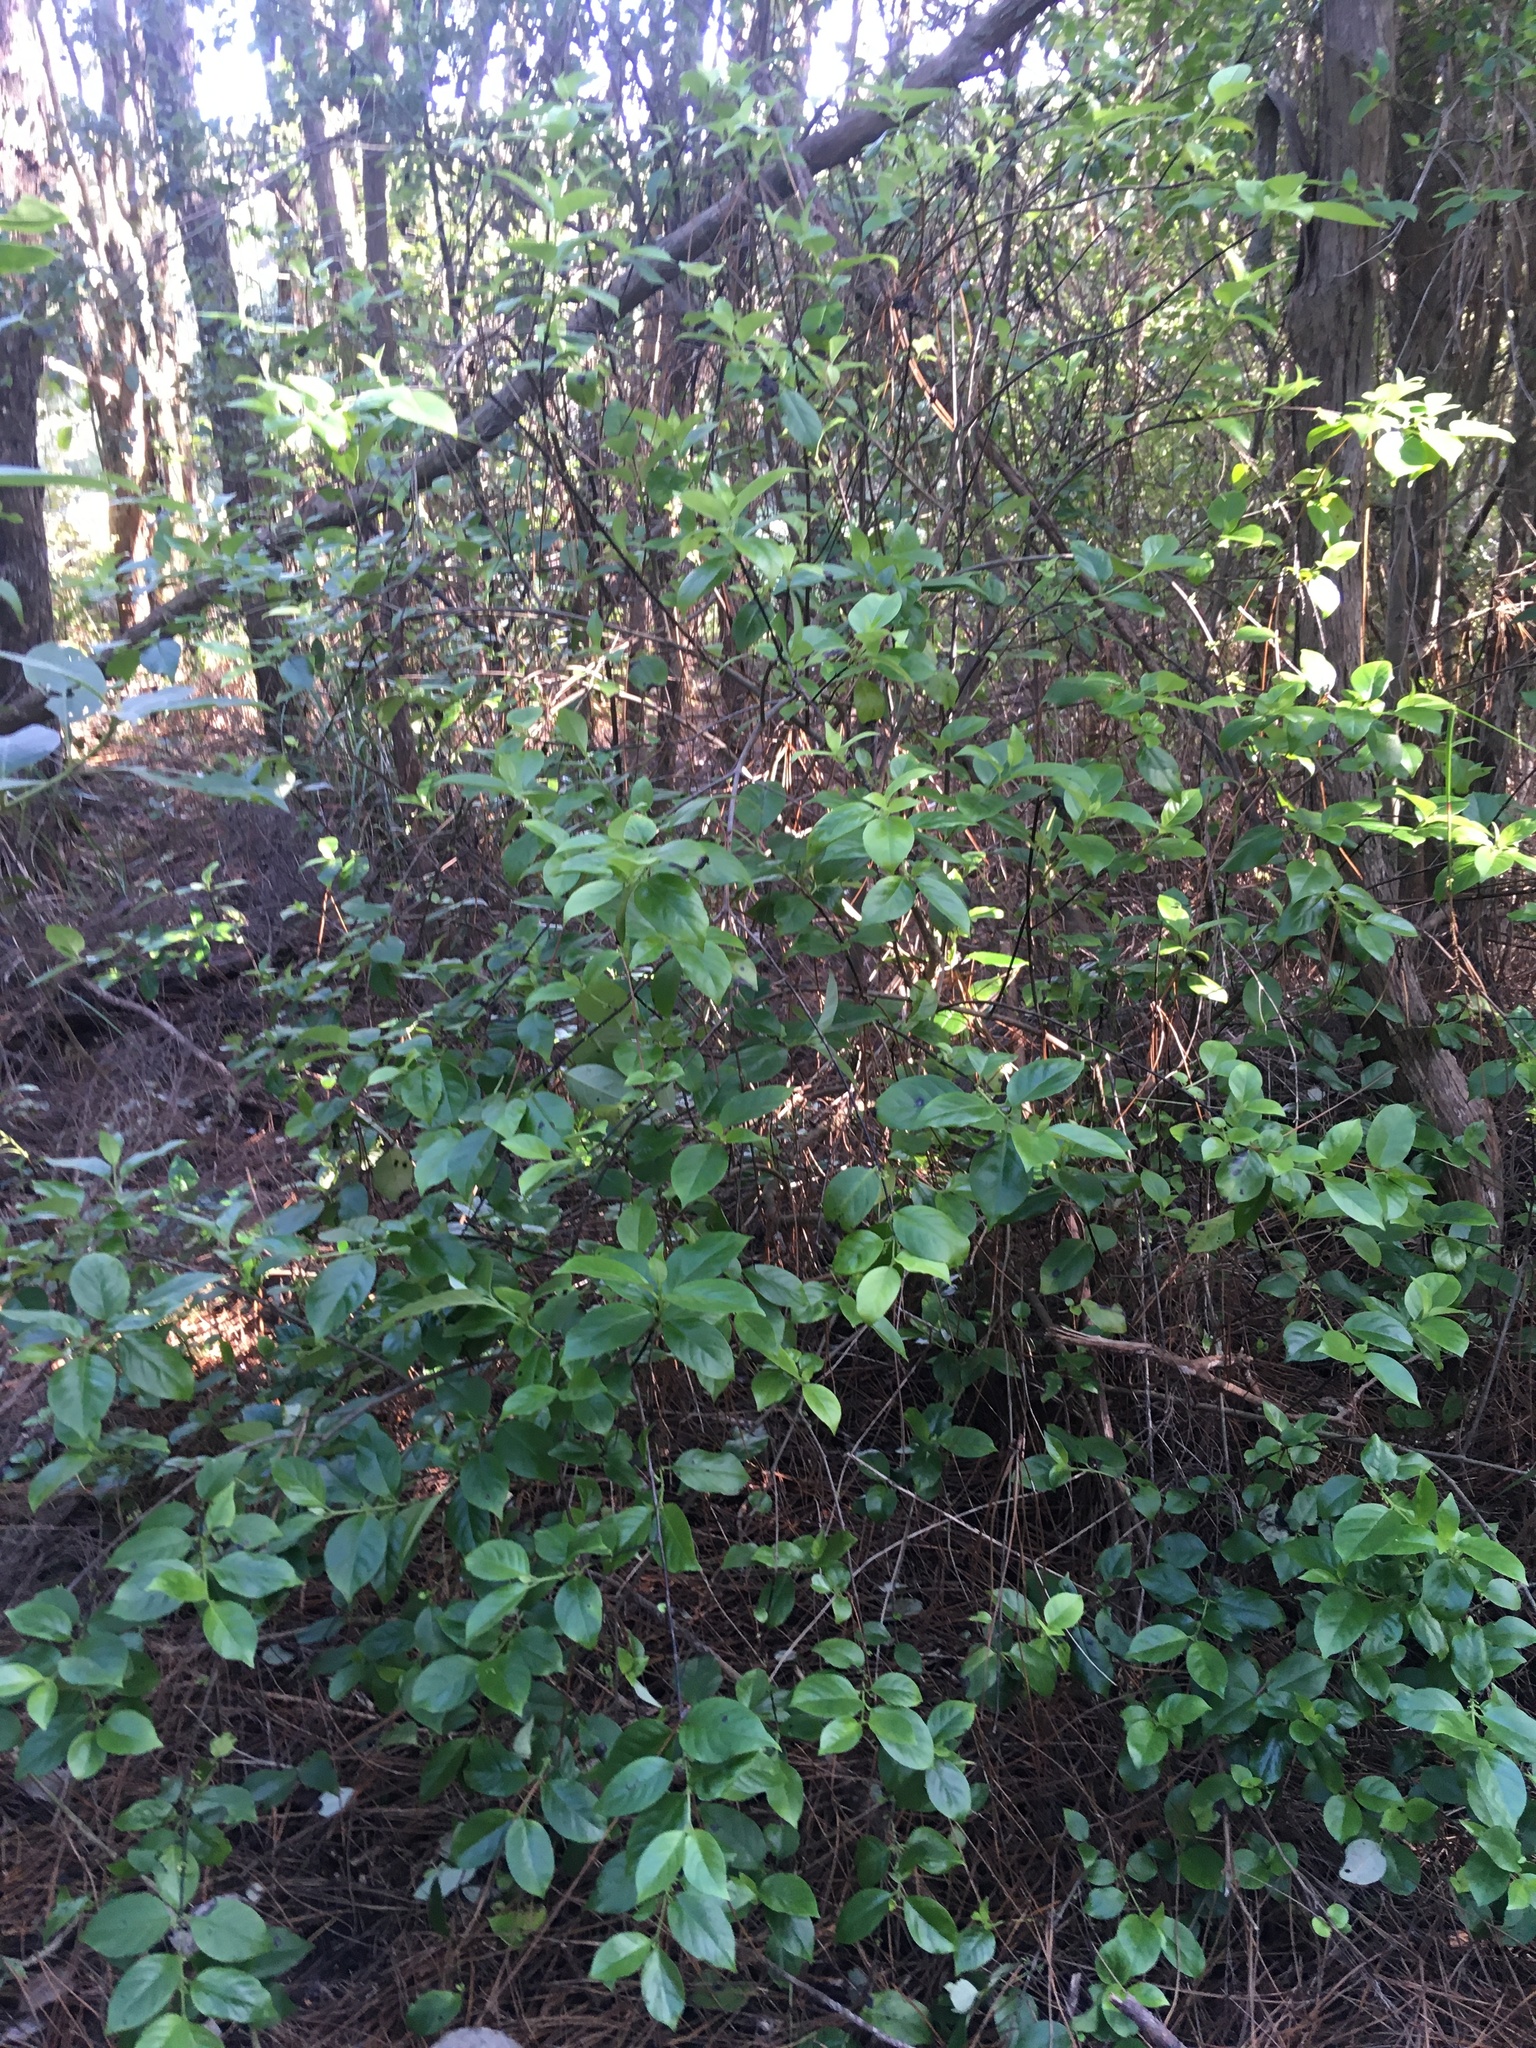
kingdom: Plantae
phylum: Tracheophyta
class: Magnoliopsida
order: Gentianales
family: Loganiaceae
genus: Geniostoma
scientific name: Geniostoma ligustrifolium
